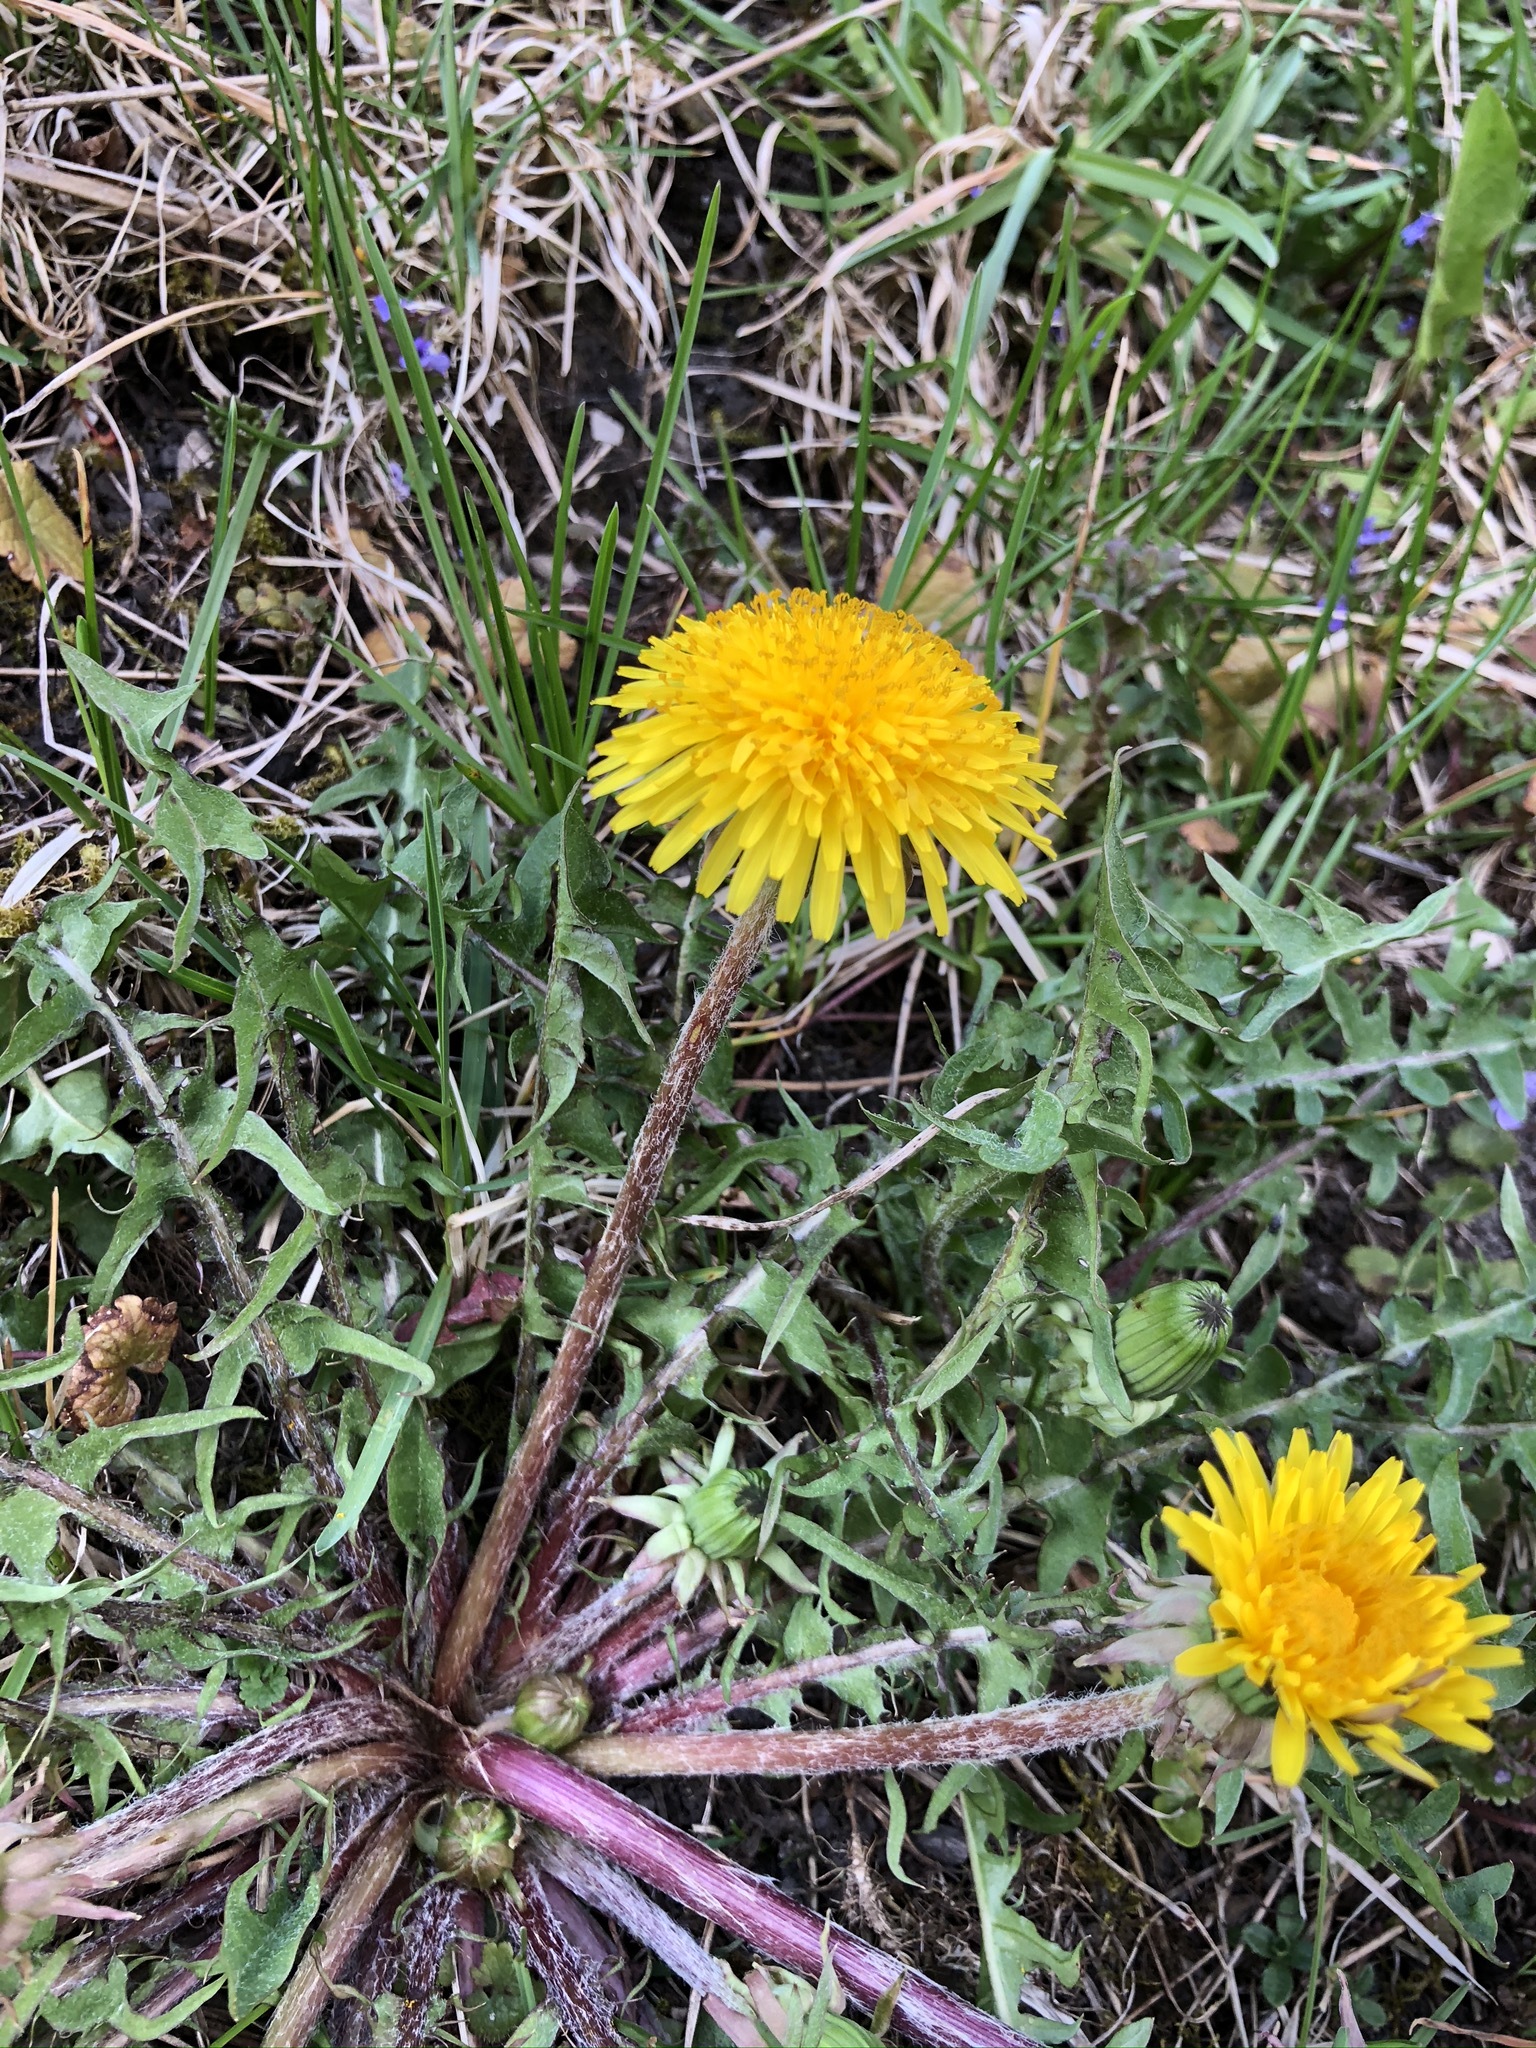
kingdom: Plantae
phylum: Tracheophyta
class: Magnoliopsida
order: Asterales
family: Asteraceae
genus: Taraxacum
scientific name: Taraxacum officinale
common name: Common dandelion
